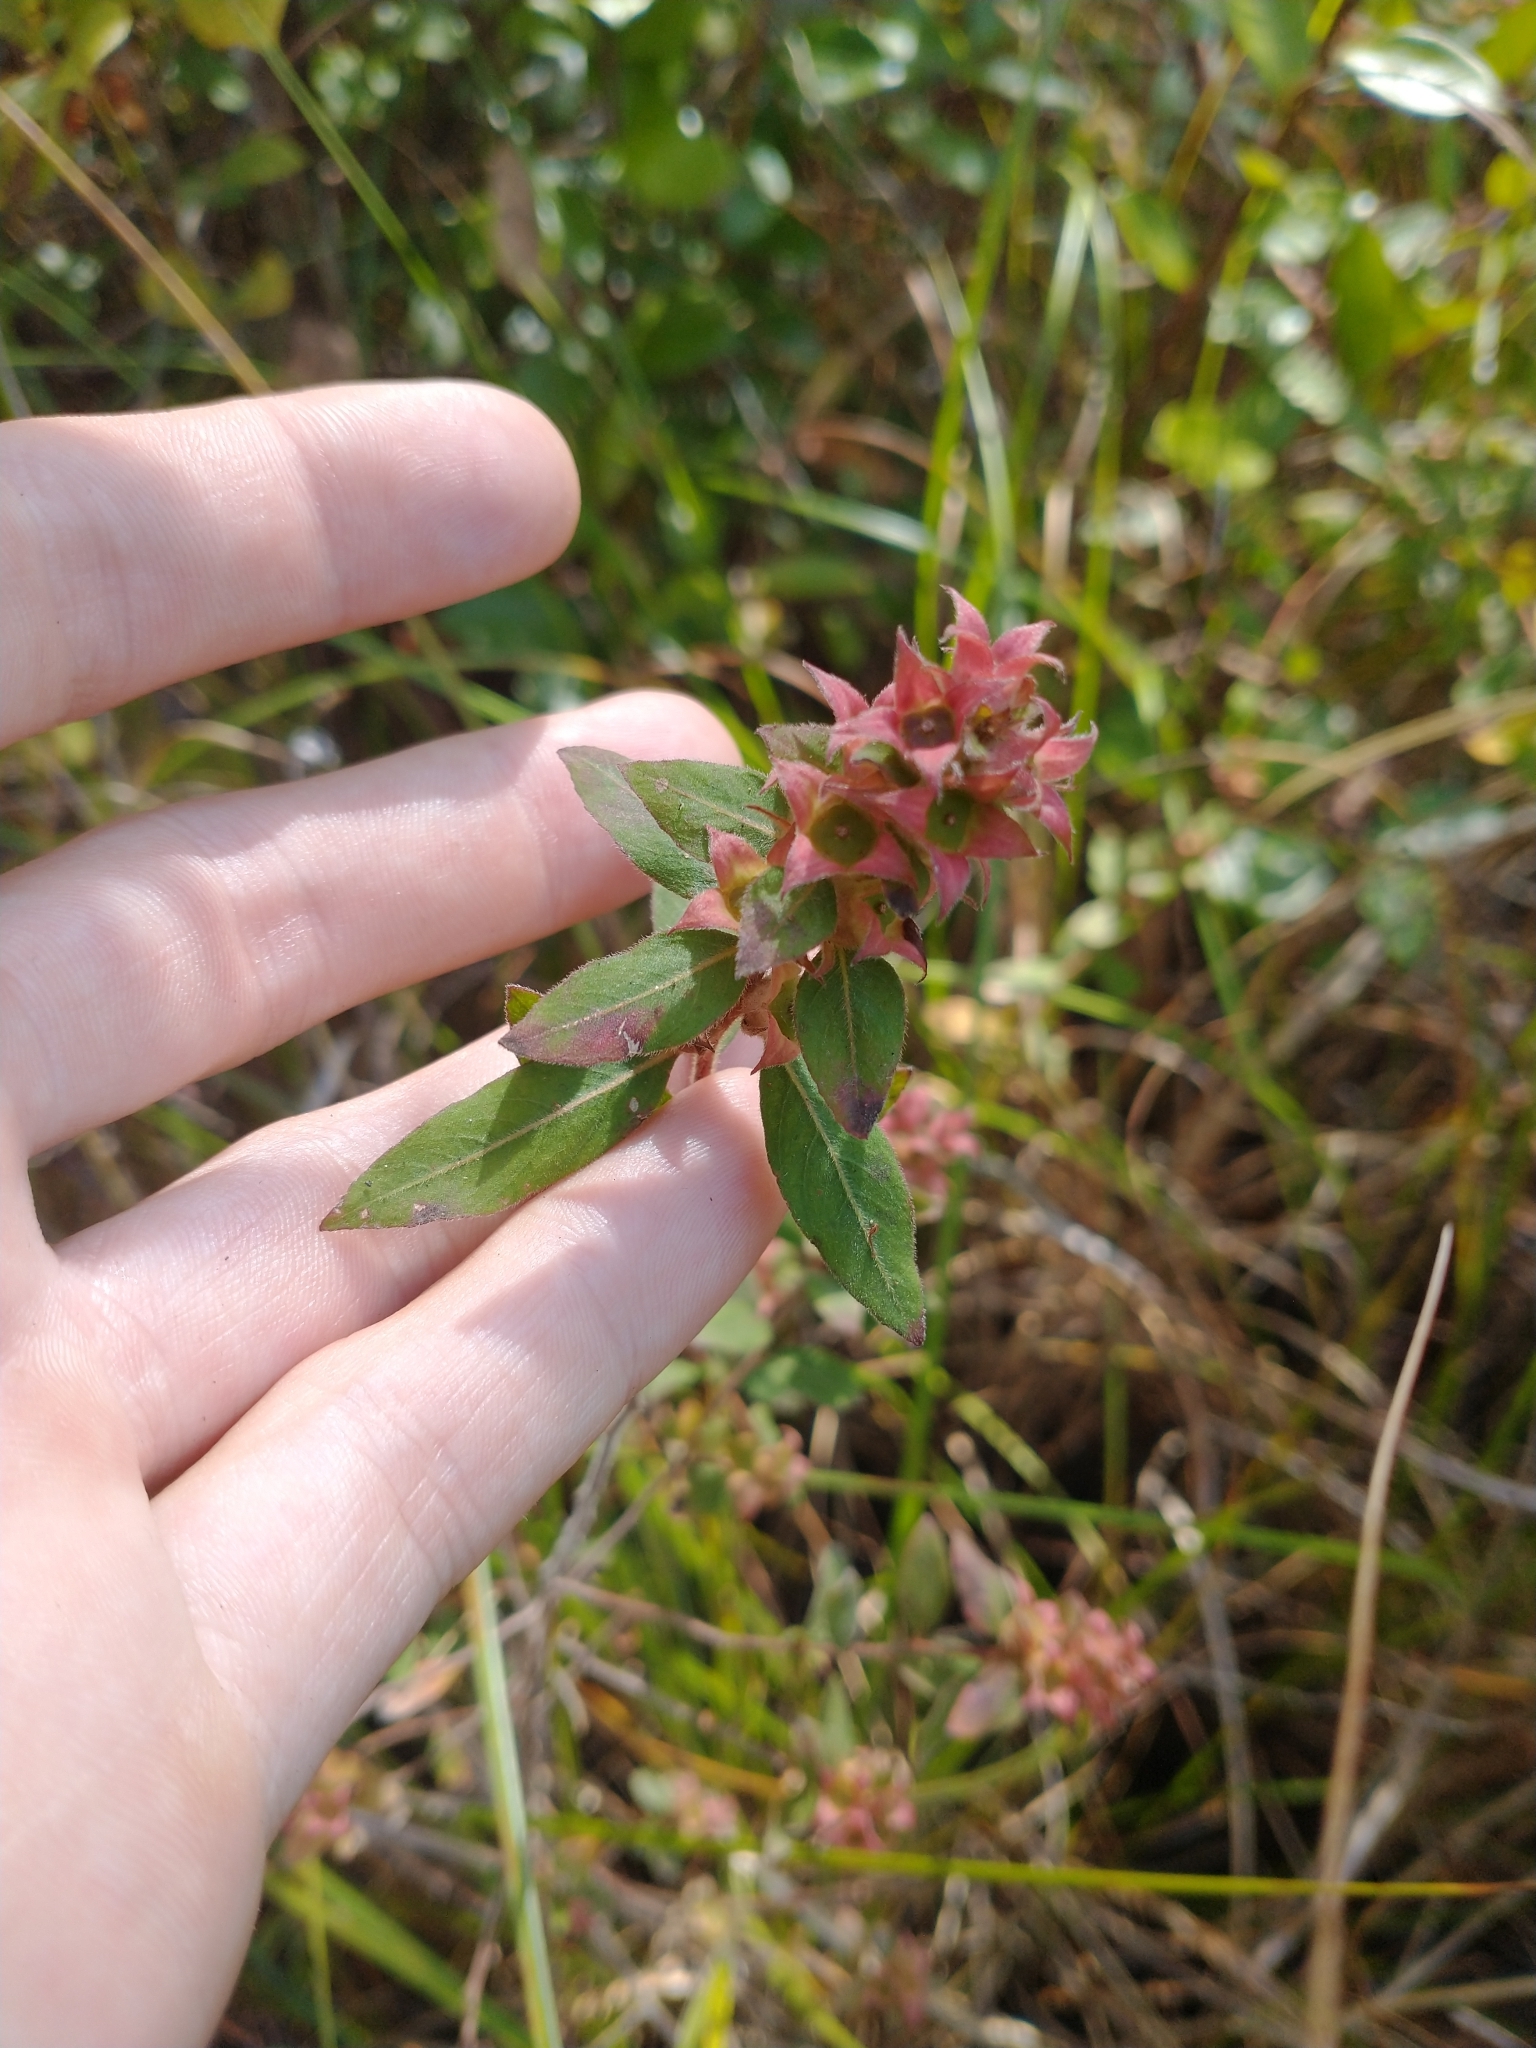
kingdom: Plantae
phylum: Tracheophyta
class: Magnoliopsida
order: Myrtales
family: Onagraceae
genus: Ludwigia
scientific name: Ludwigia pilosa
